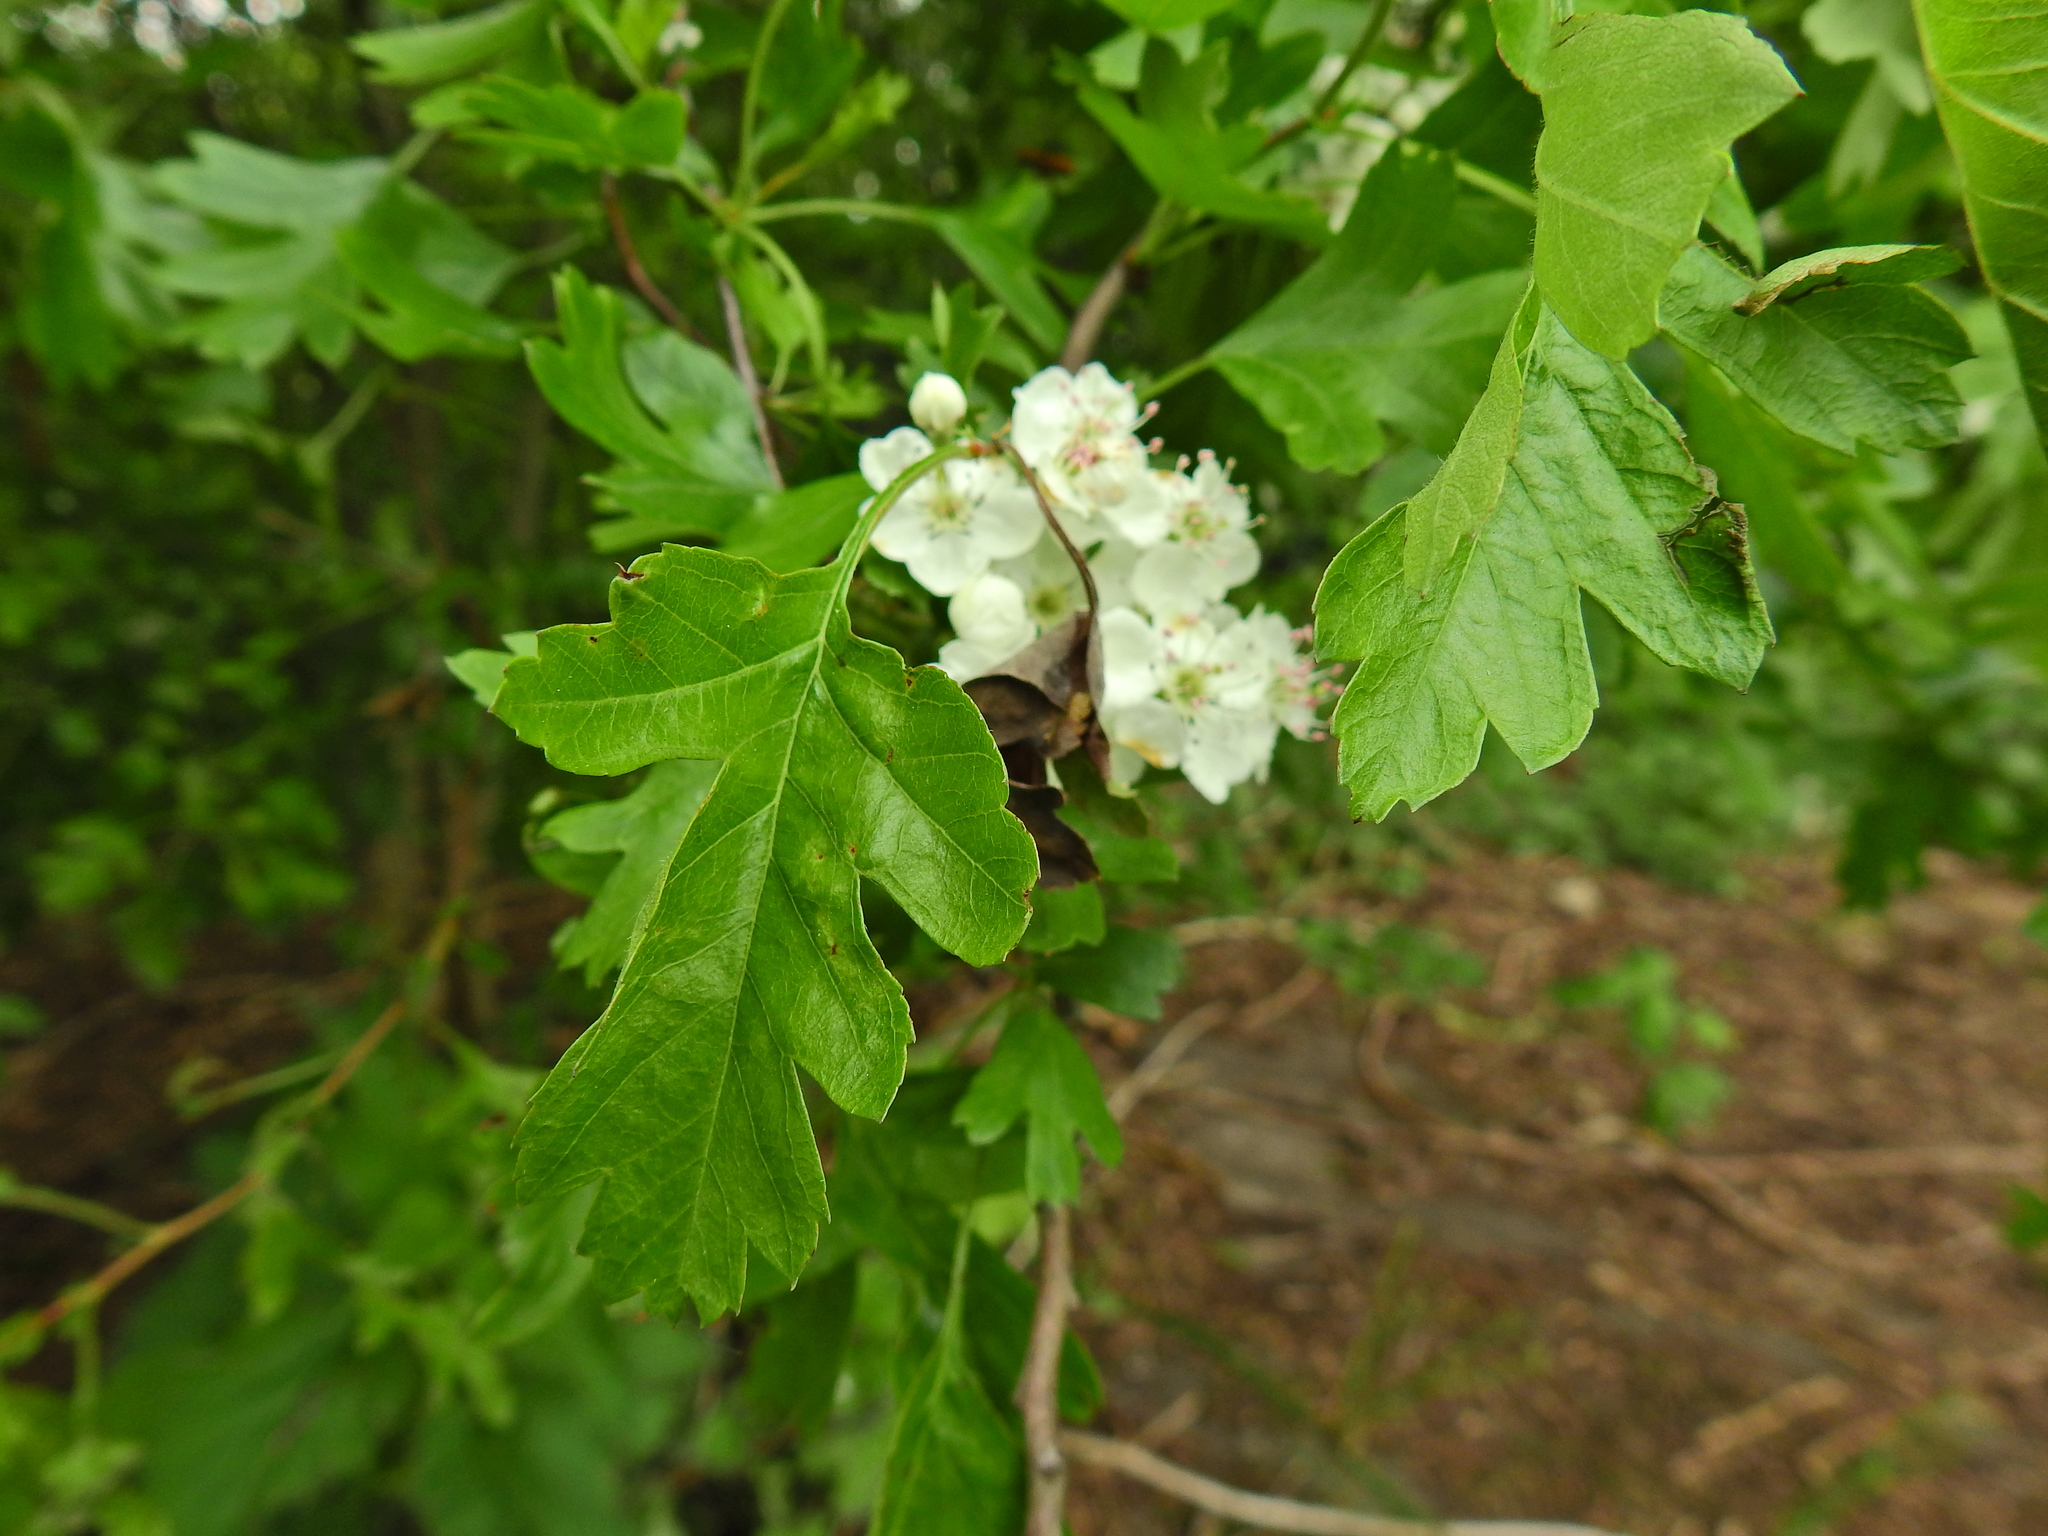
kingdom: Plantae
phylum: Tracheophyta
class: Magnoliopsida
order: Rosales
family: Rosaceae
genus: Crataegus
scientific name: Crataegus monogyna
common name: Hawthorn
